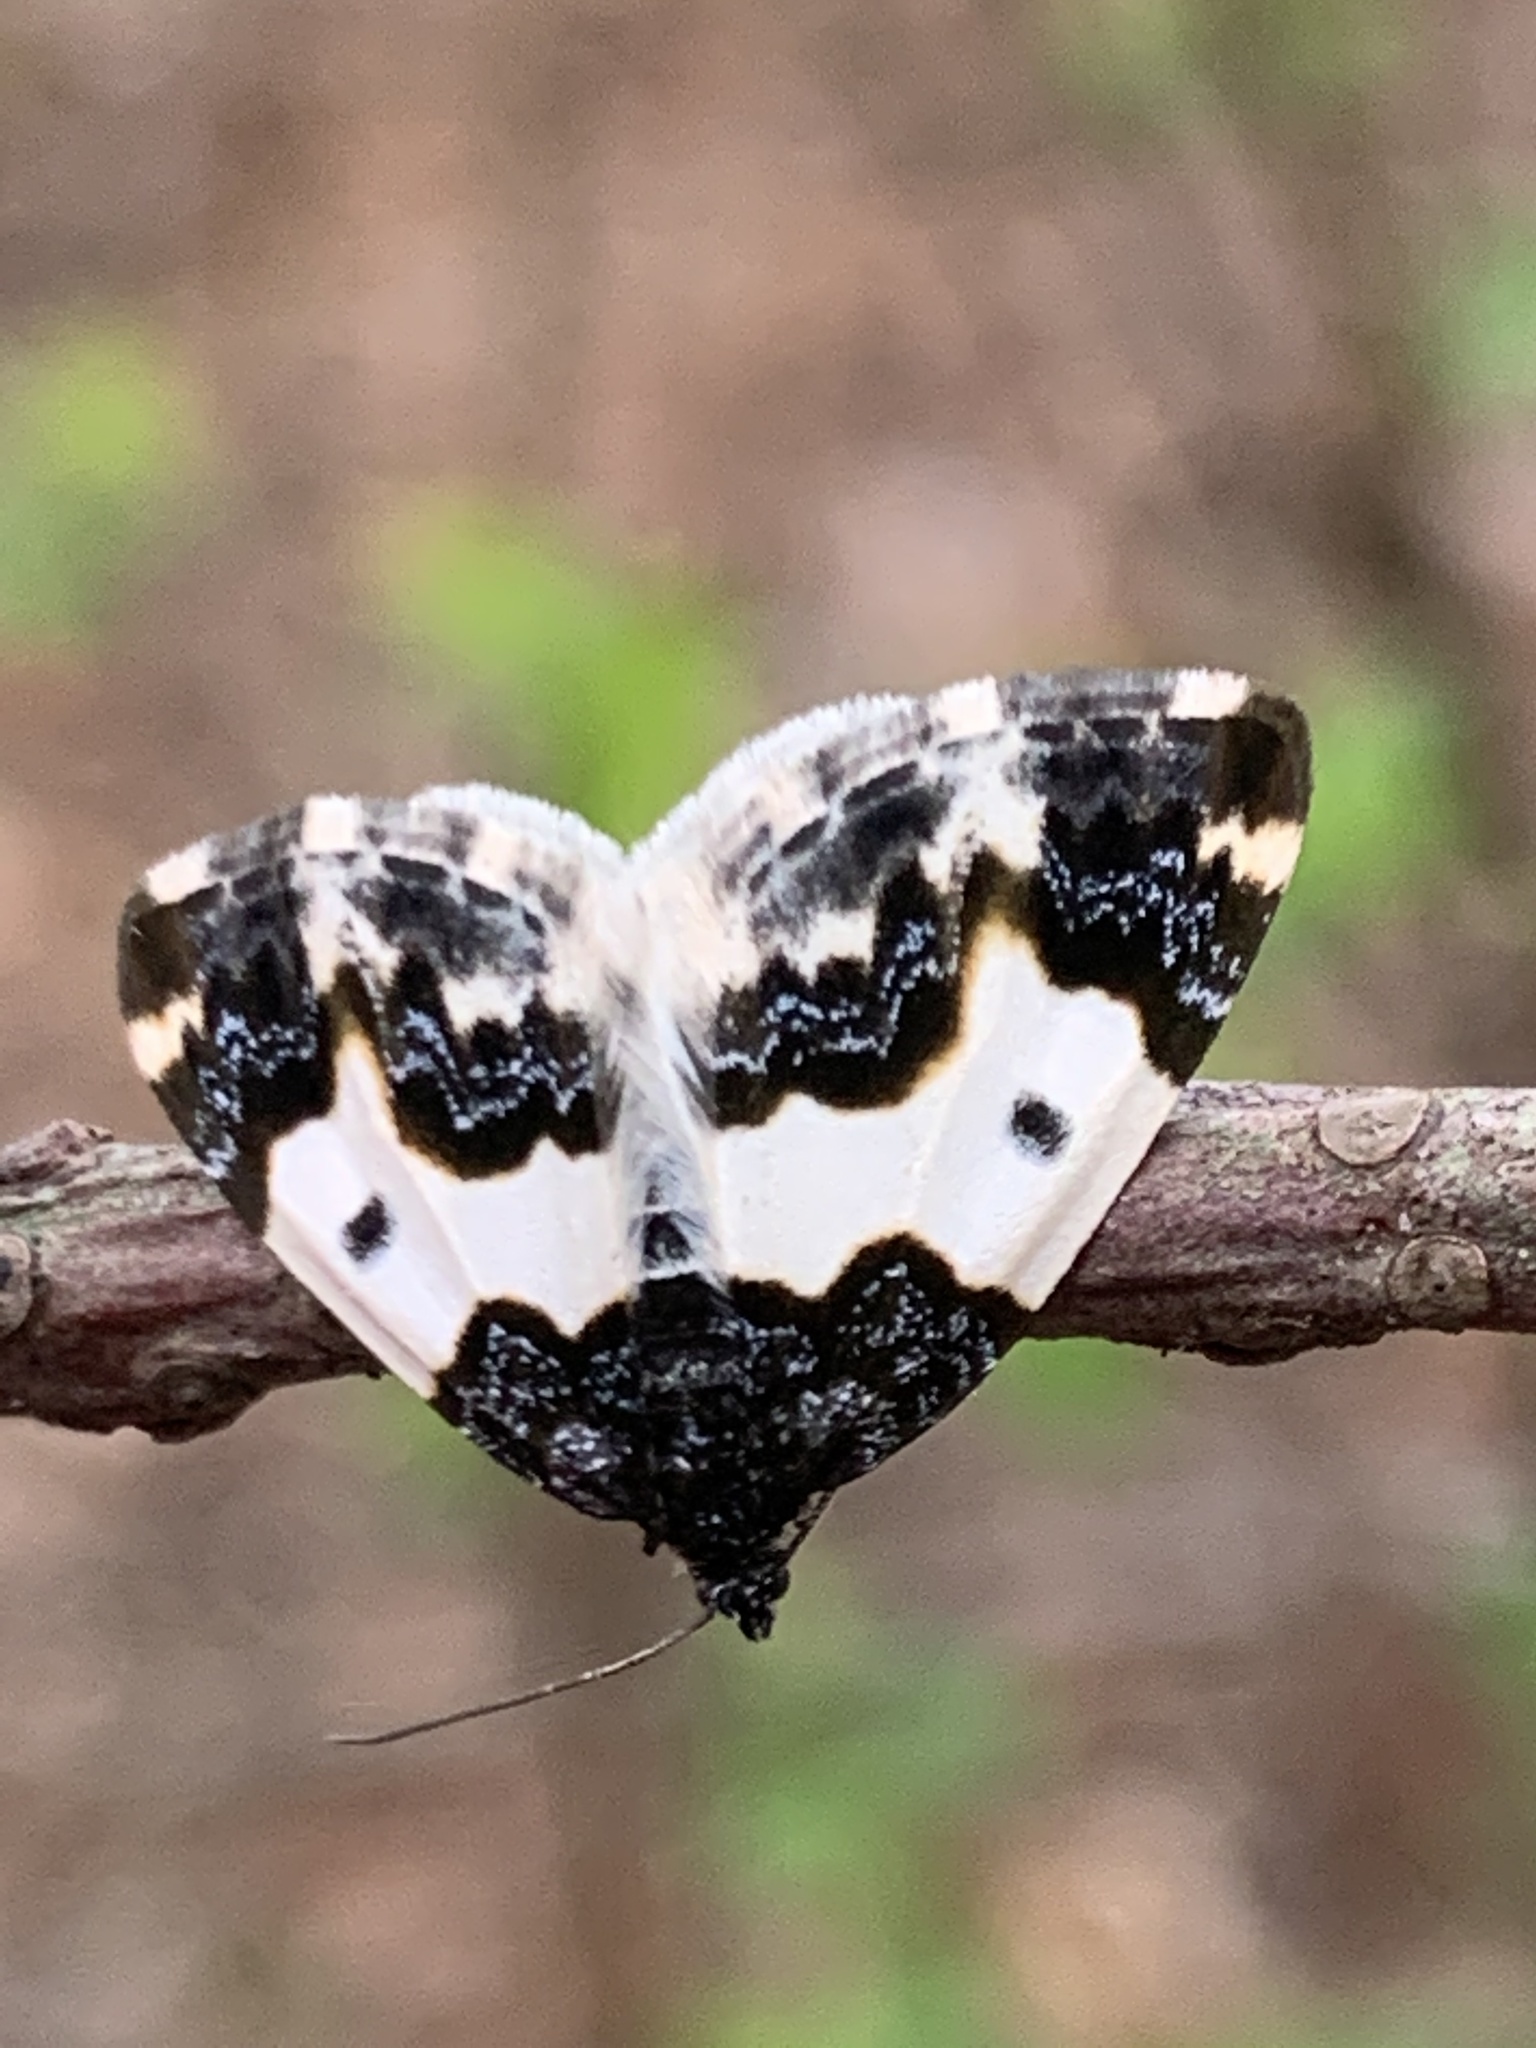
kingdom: Animalia
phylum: Arthropoda
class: Insecta
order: Lepidoptera
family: Geometridae
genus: Mesoleuca
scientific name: Mesoleuca gratulata
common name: Half-white carpet moth
